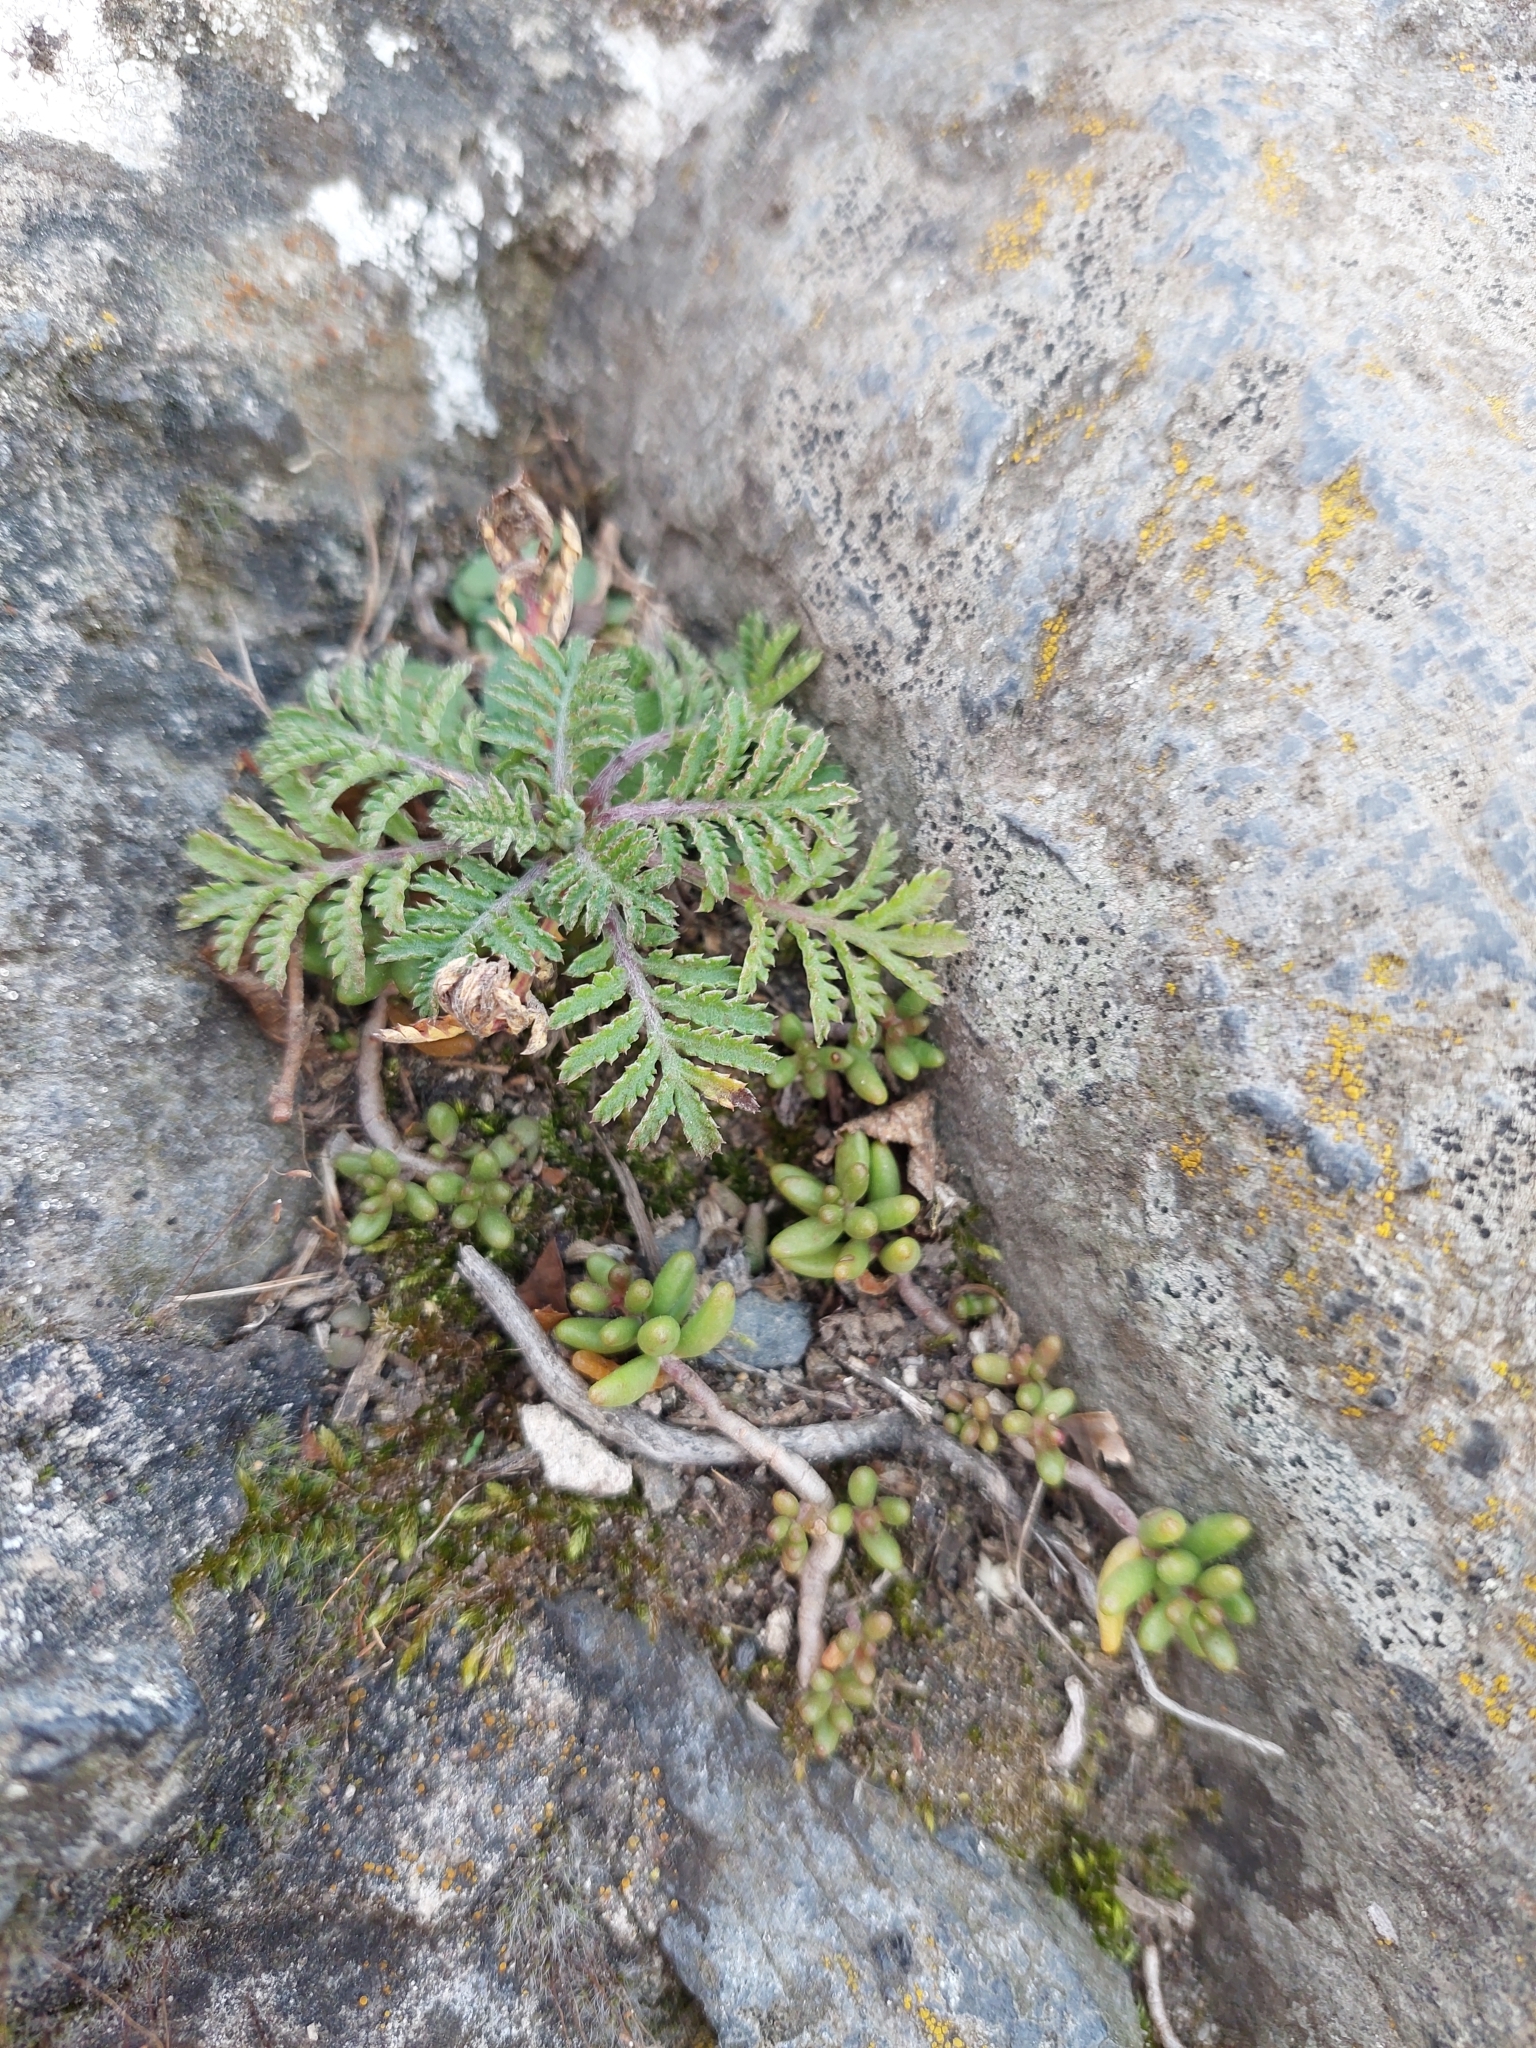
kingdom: Plantae
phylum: Tracheophyta
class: Magnoliopsida
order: Asterales
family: Asteraceae
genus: Cota
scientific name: Cota tinctoria
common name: Golden chamomile
